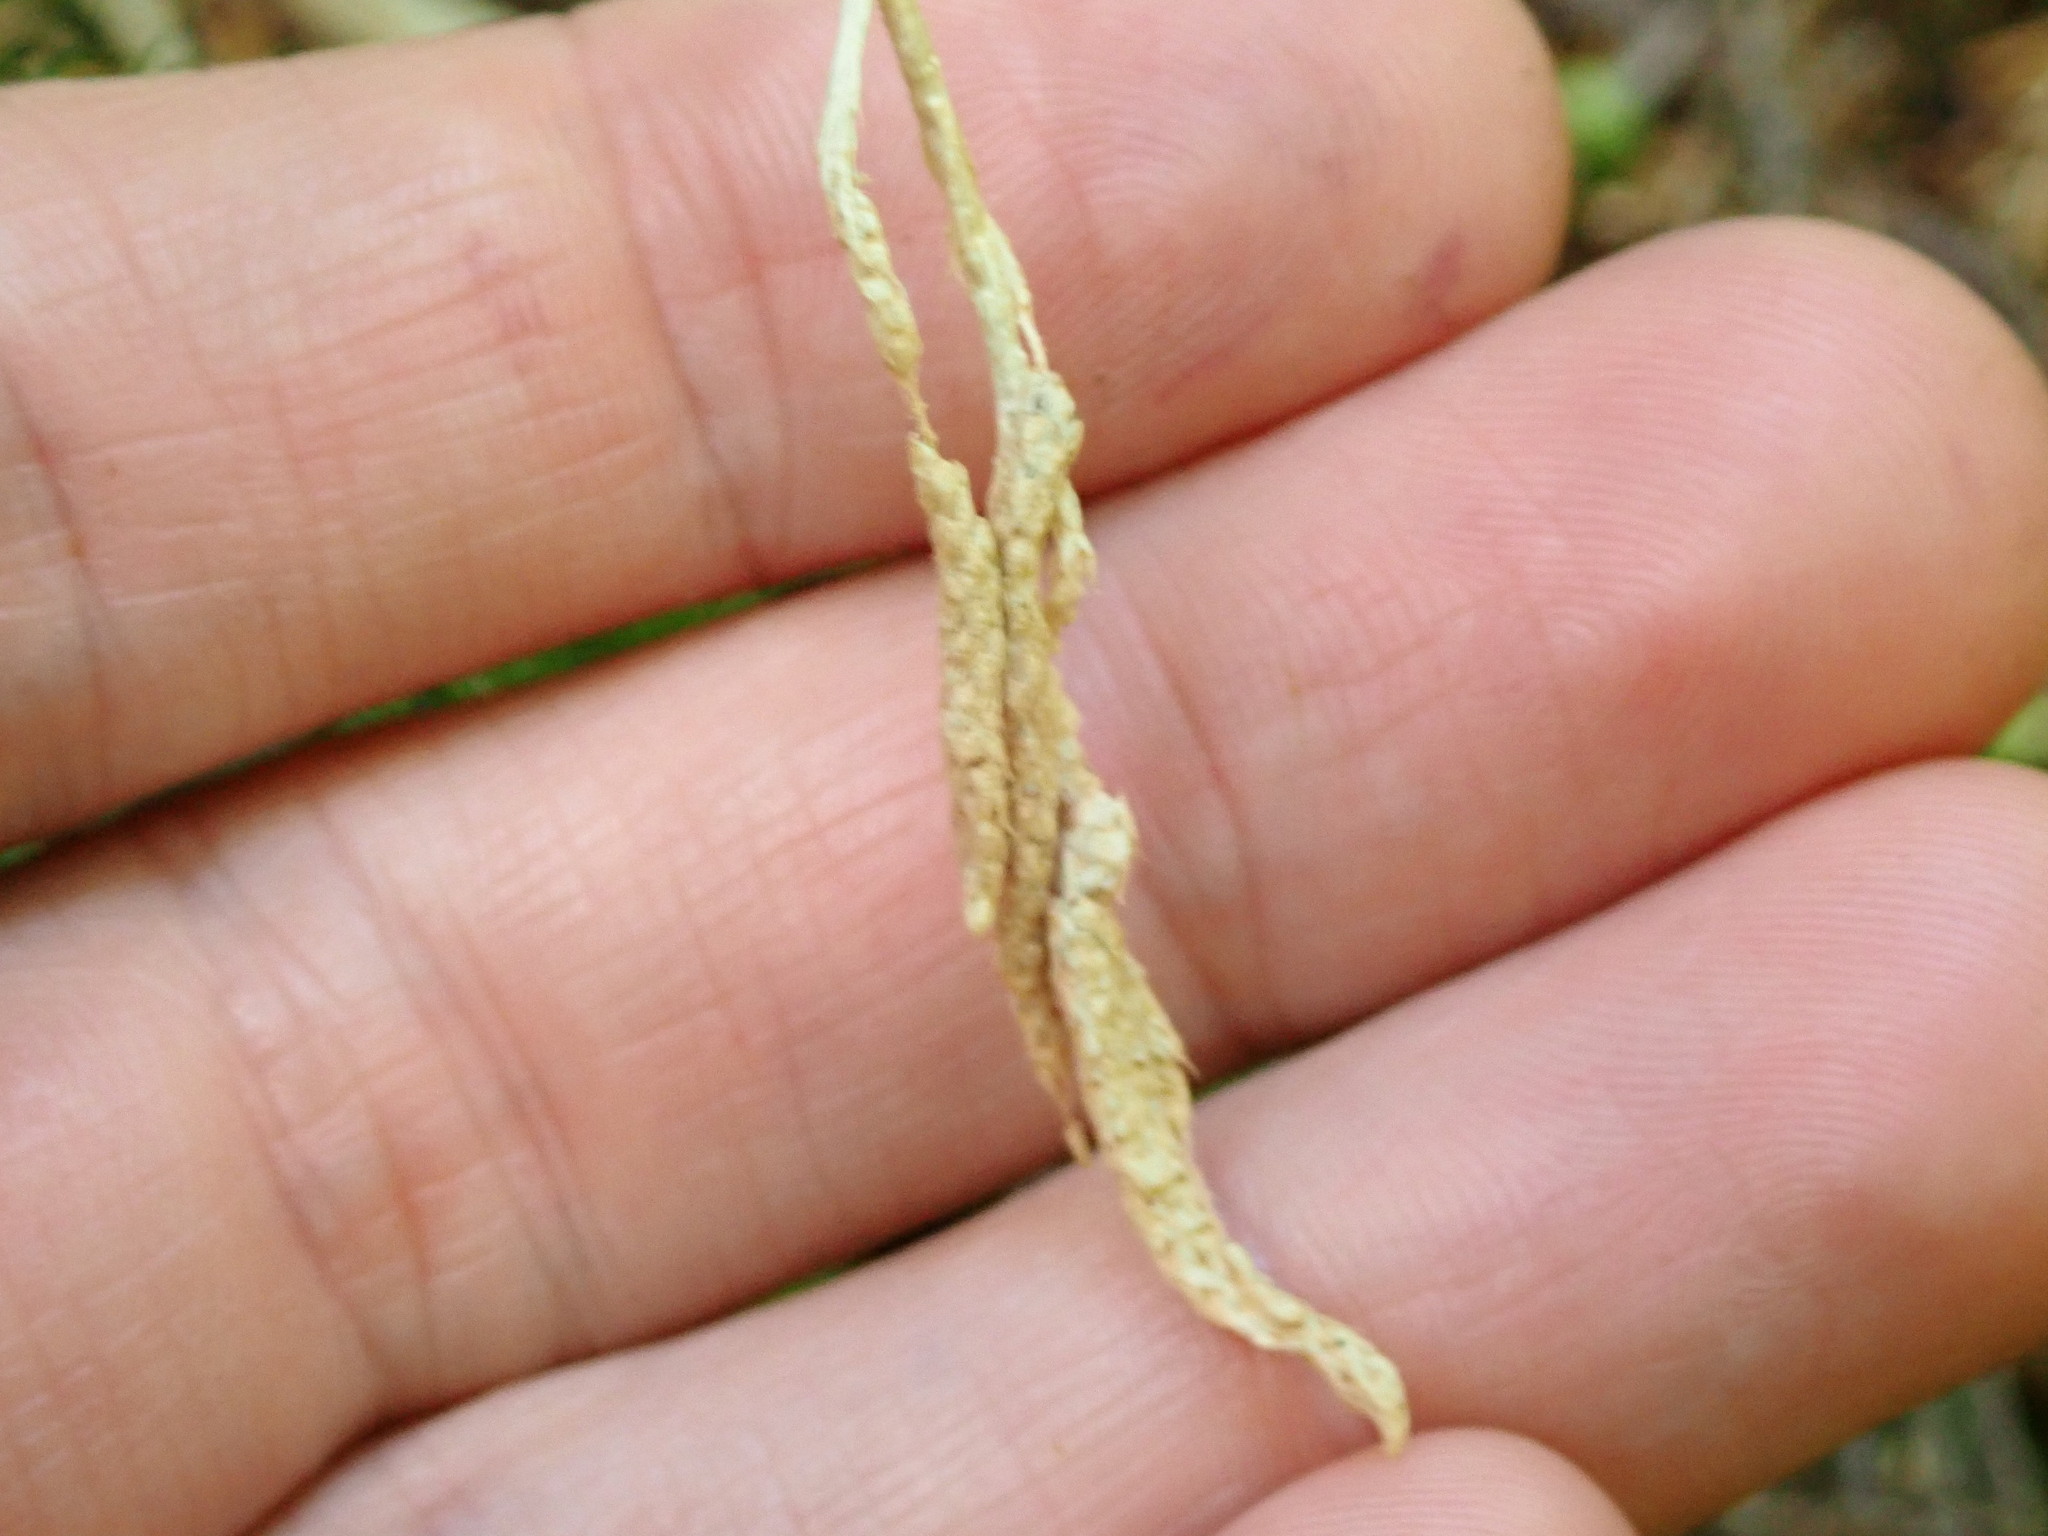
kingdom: Plantae
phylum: Tracheophyta
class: Lycopodiopsida
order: Lycopodiales
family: Lycopodiaceae
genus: Lycopodium
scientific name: Lycopodium clavatum
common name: Stag's-horn clubmoss
